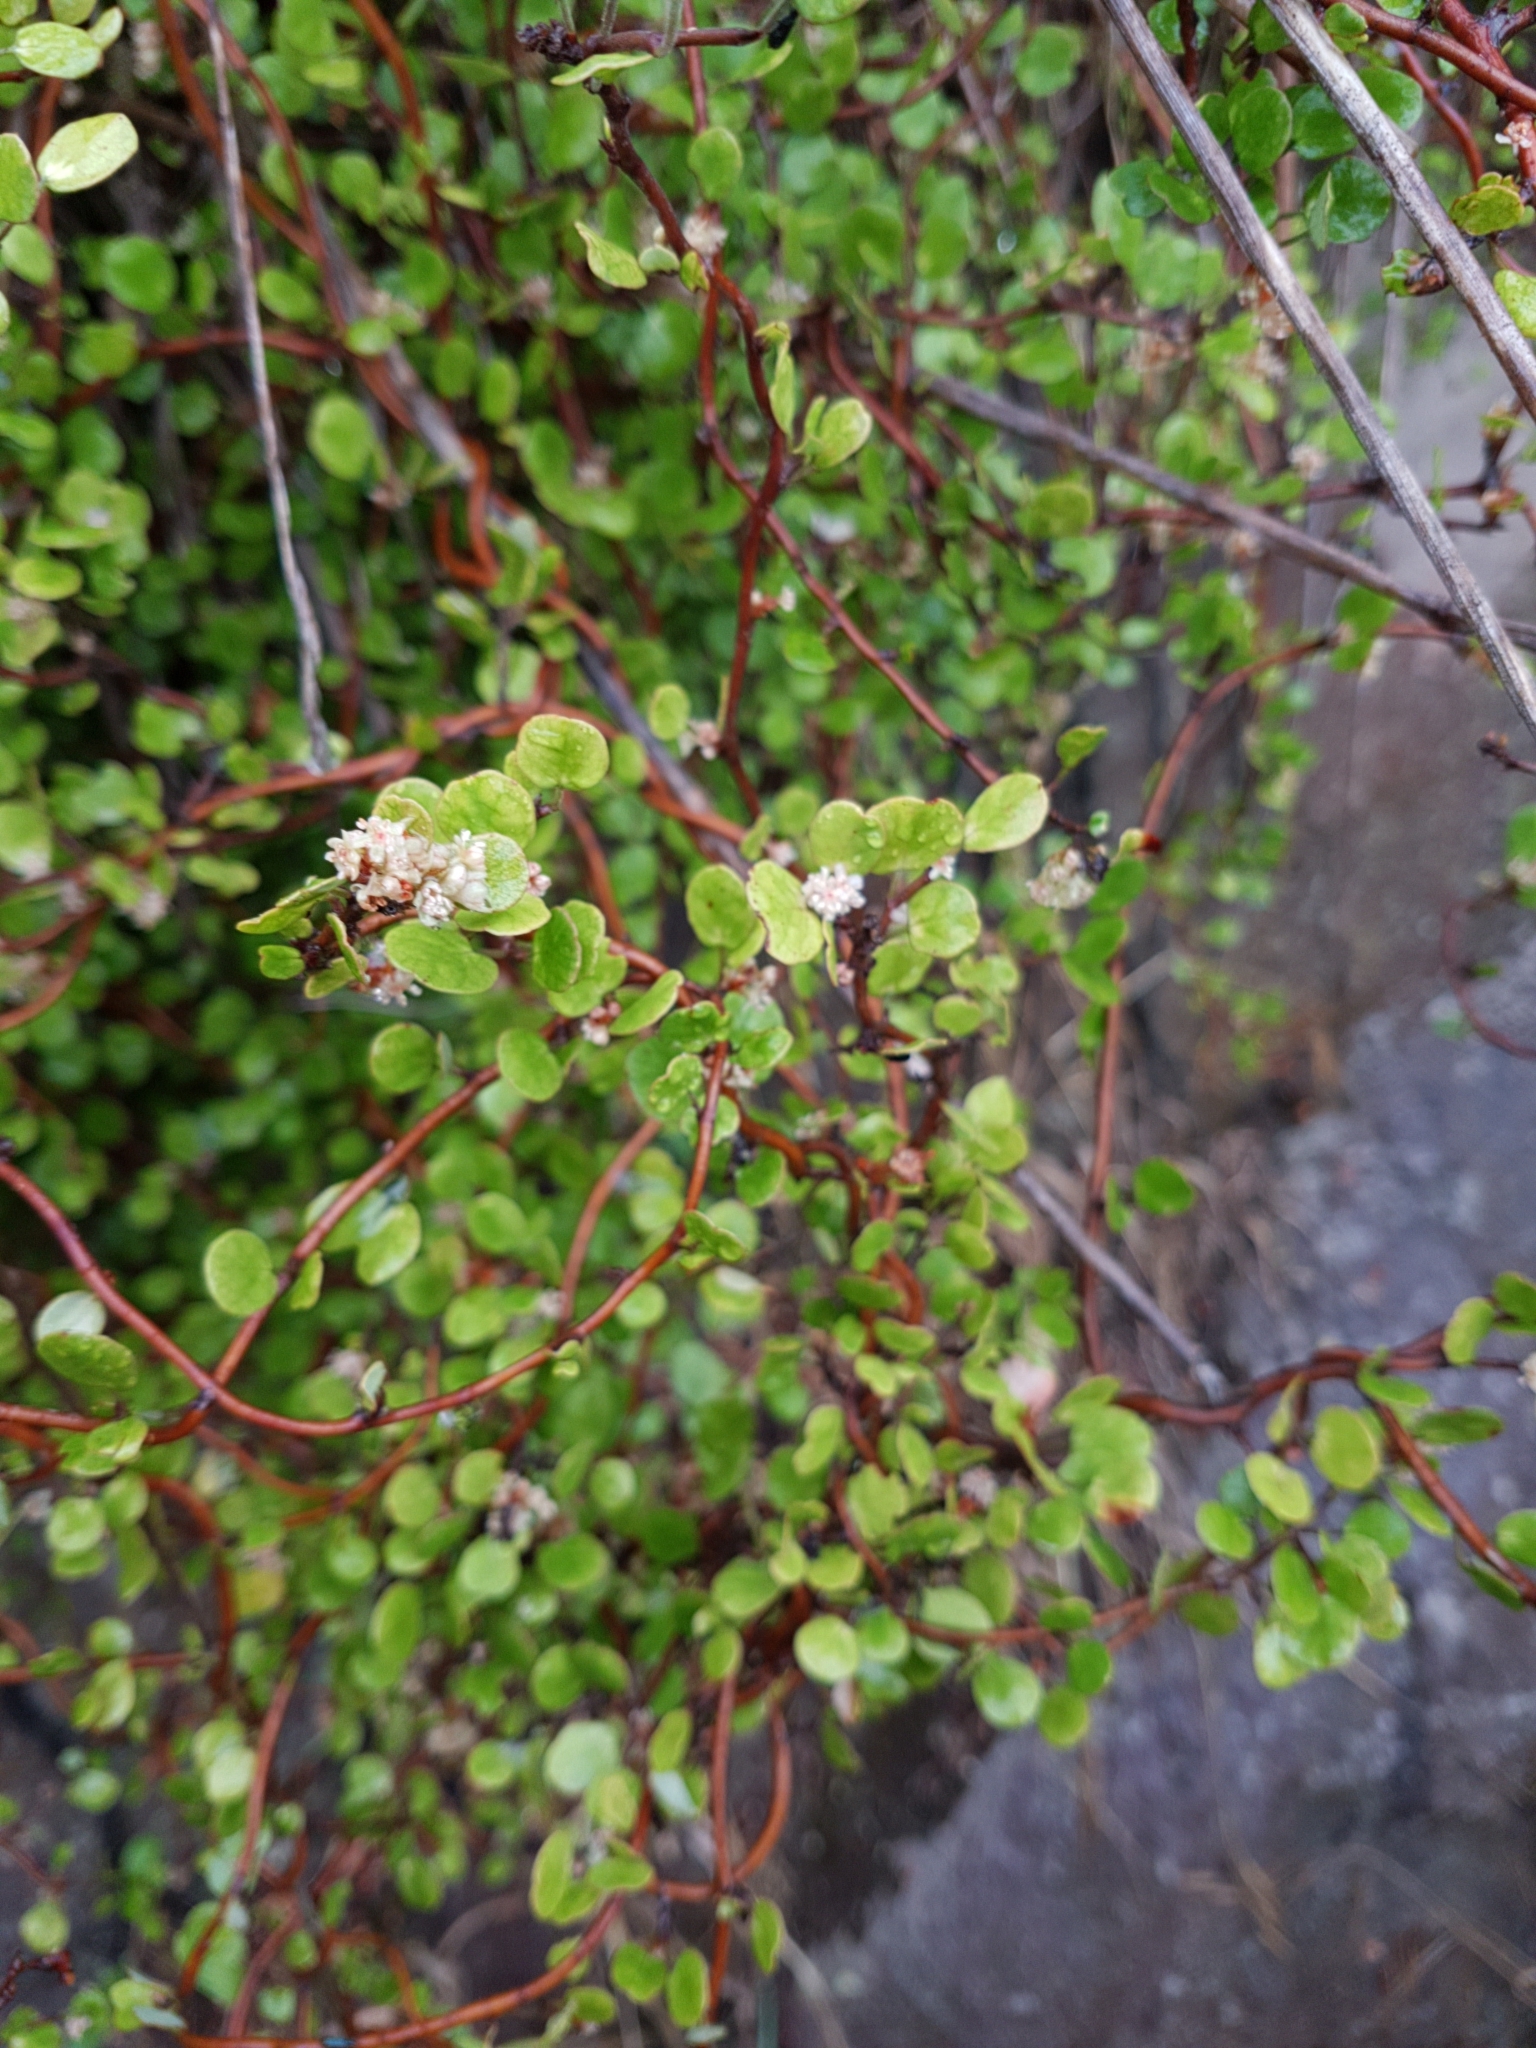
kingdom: Plantae
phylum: Tracheophyta
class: Magnoliopsida
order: Caryophyllales
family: Polygonaceae
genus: Muehlenbeckia
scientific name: Muehlenbeckia complexa
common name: Wireplant
